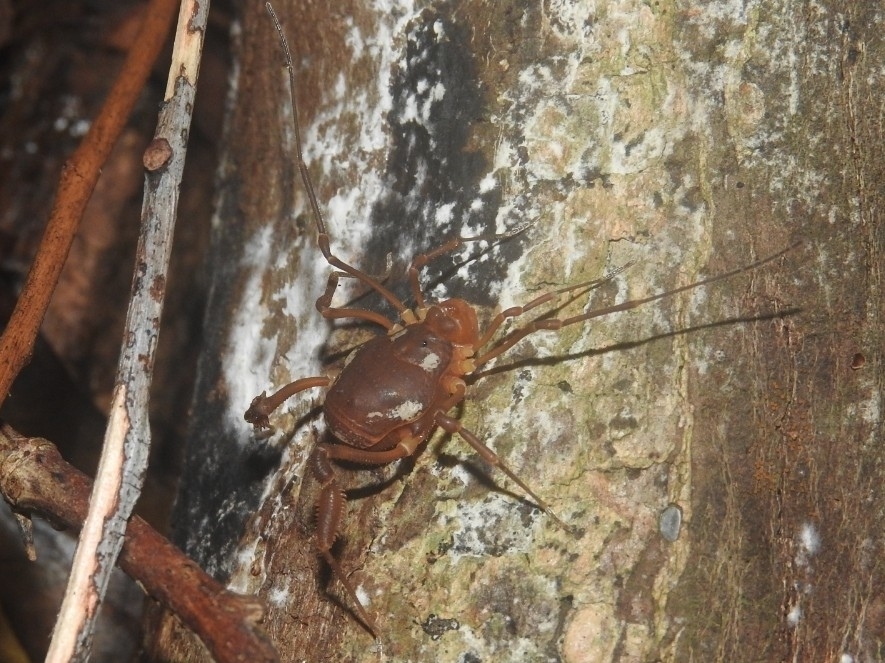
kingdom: Animalia
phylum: Arthropoda
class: Arachnida
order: Opiliones
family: Cosmetidae
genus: Erginulus
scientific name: Erginulus roeweri
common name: Harvestmen
